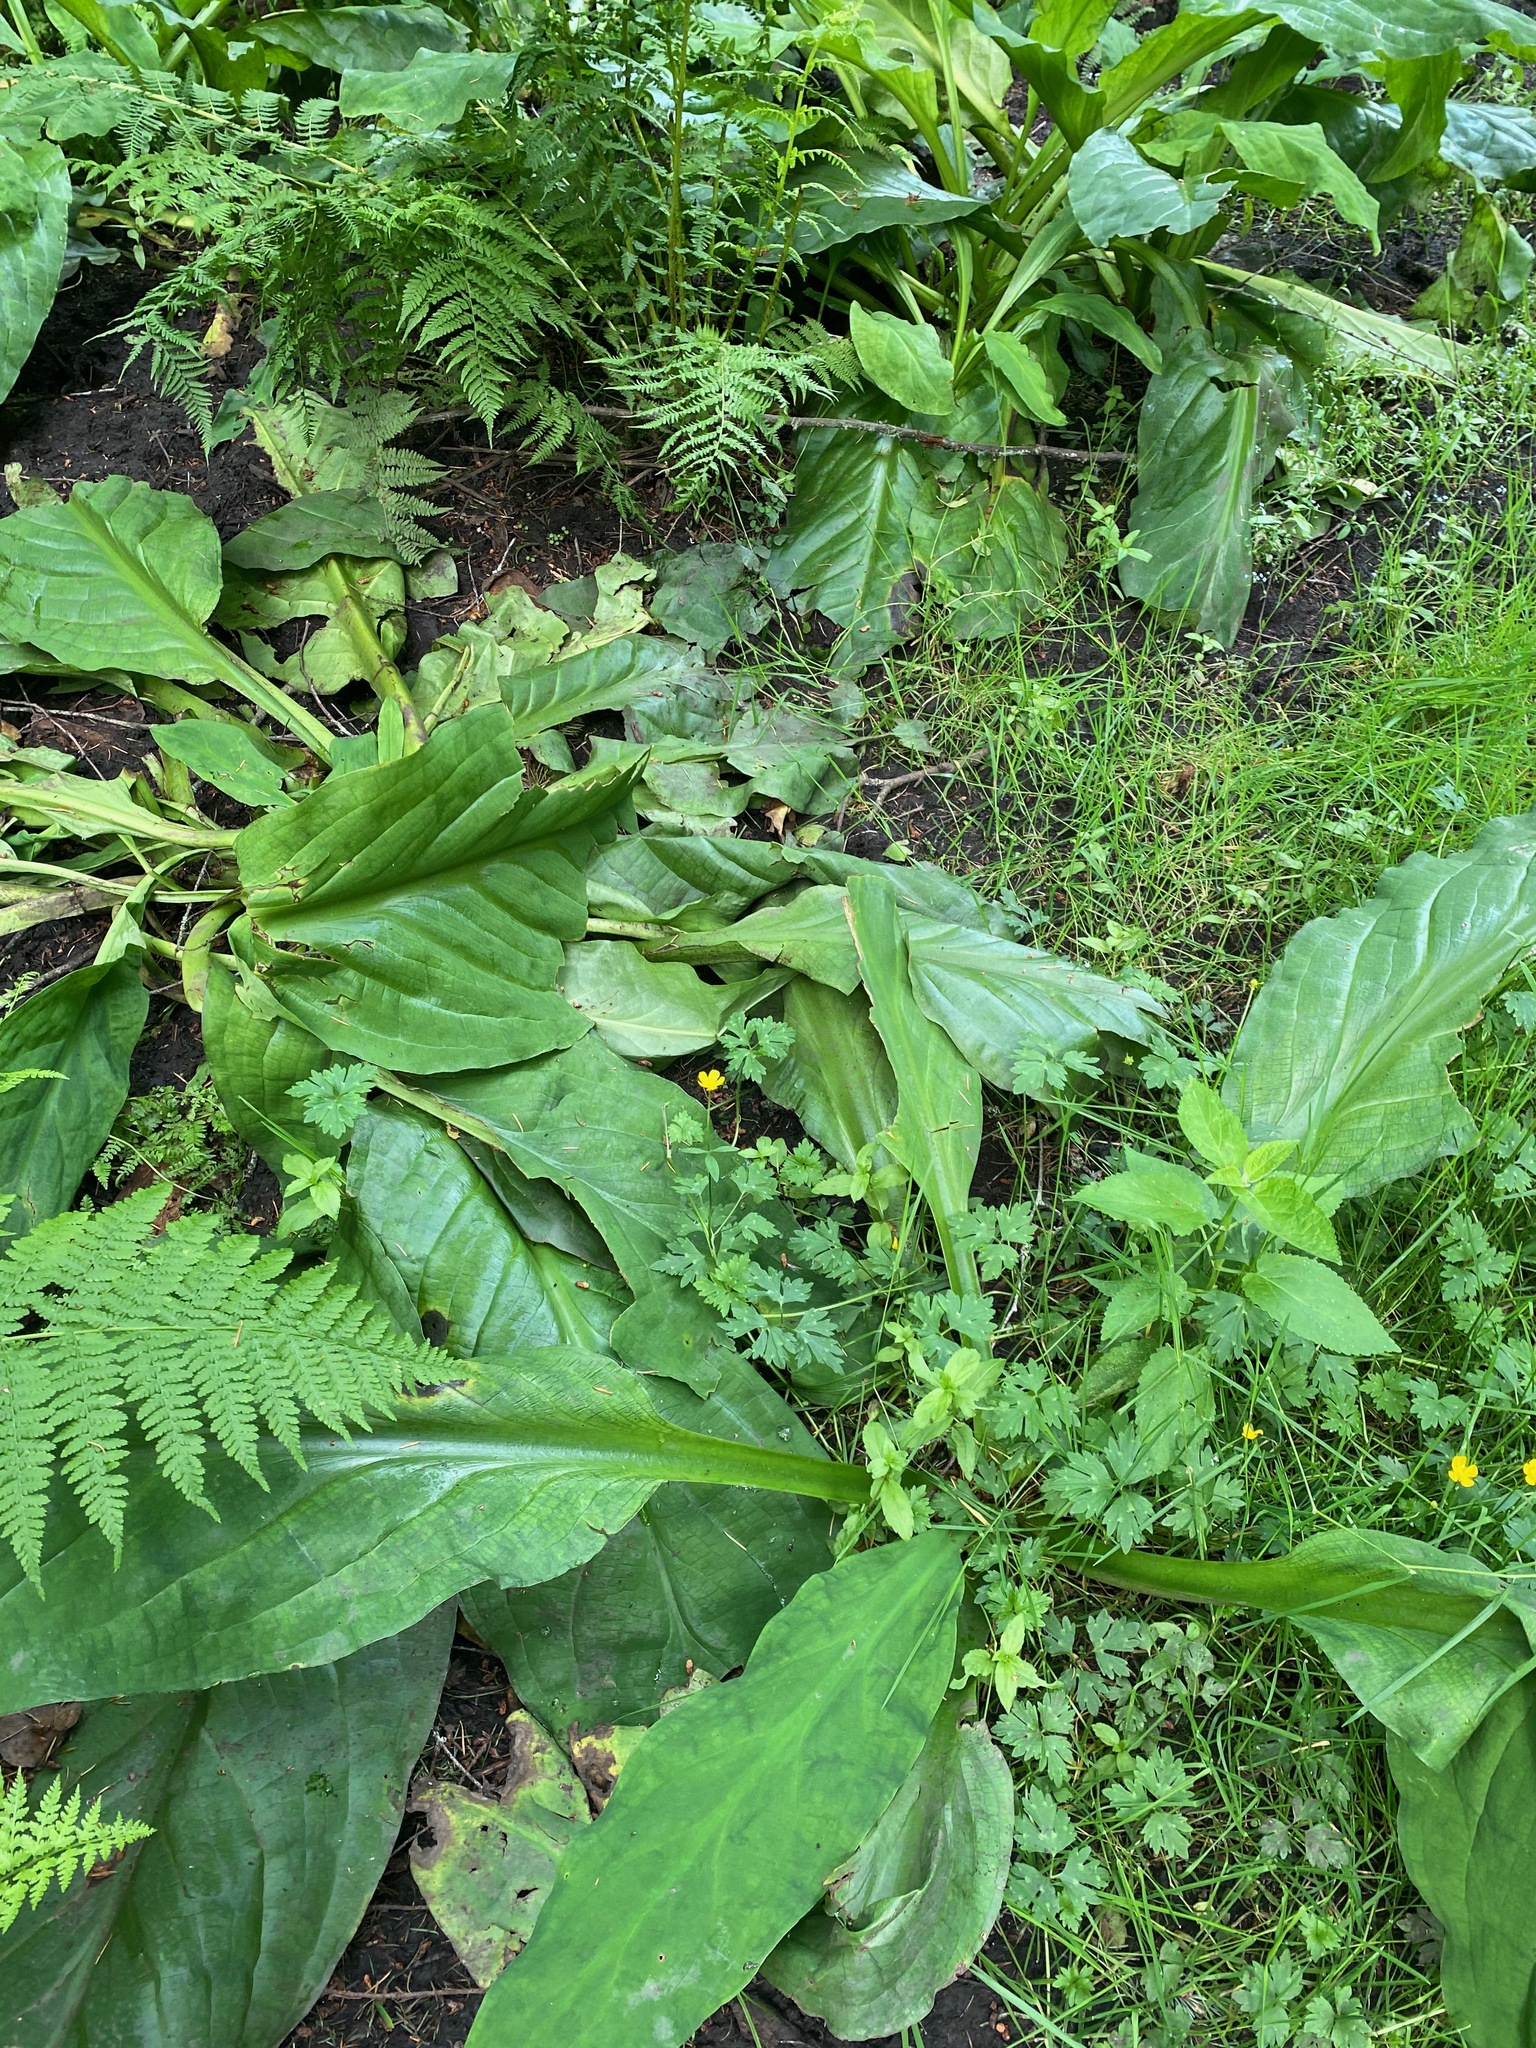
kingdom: Plantae
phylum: Tracheophyta
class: Liliopsida
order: Alismatales
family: Araceae
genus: Lysichiton
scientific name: Lysichiton americanus
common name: American skunk cabbage
